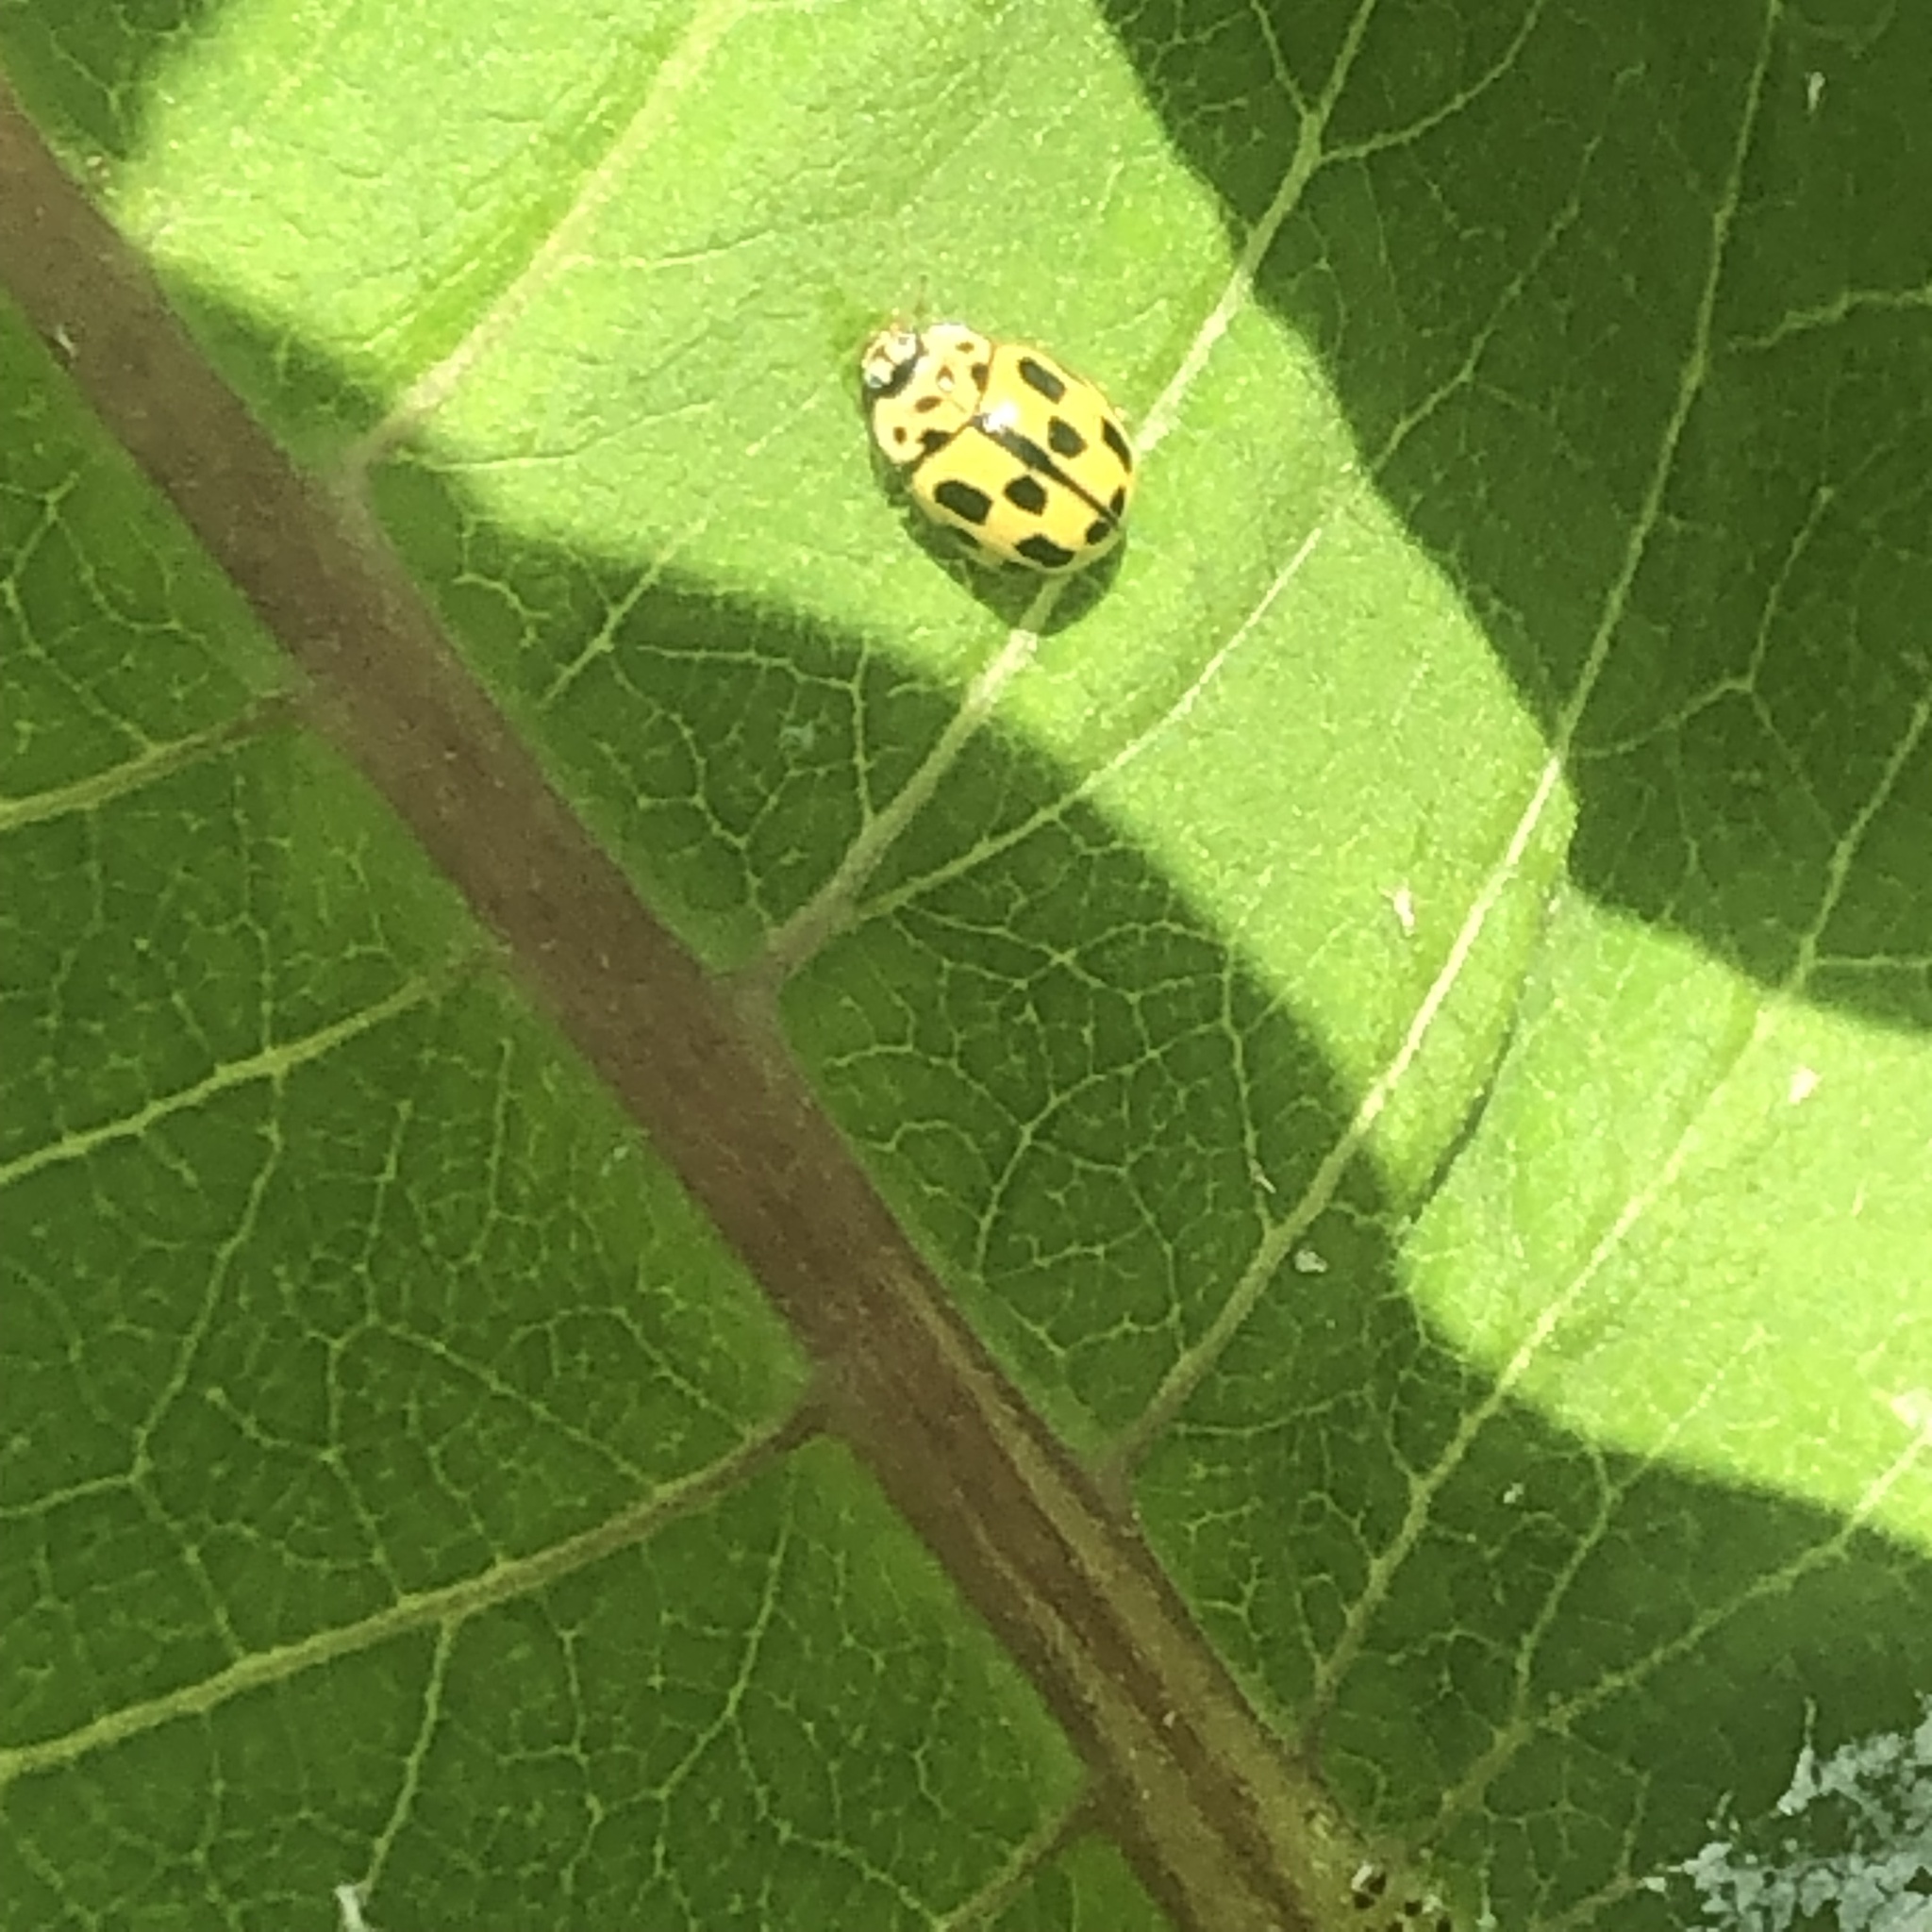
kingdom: Animalia
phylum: Arthropoda
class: Insecta
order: Coleoptera
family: Coccinellidae
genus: Propylaea
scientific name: Propylaea quatuordecimpunctata
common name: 14-spotted ladybird beetle
